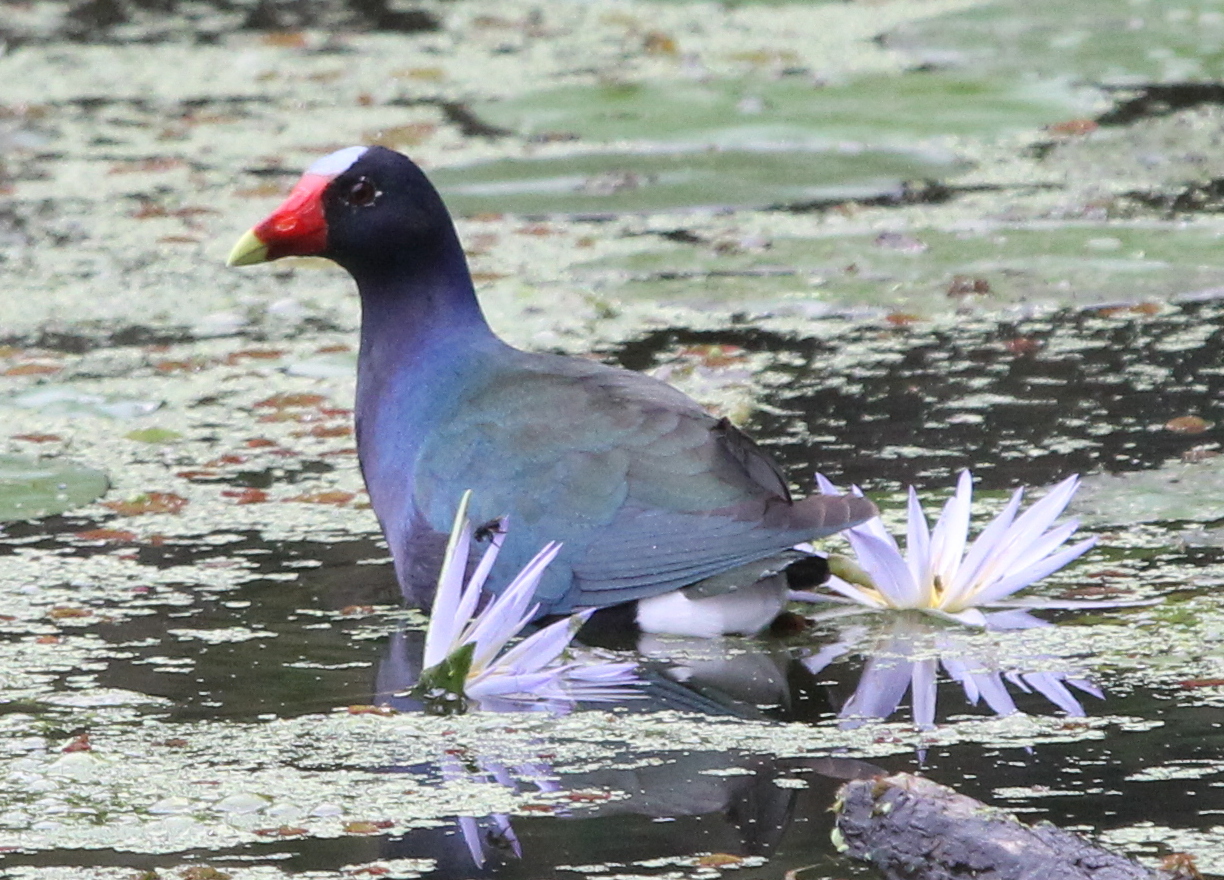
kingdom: Animalia
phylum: Chordata
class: Aves
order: Gruiformes
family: Rallidae
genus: Porphyrio
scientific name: Porphyrio martinica
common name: Purple gallinule
